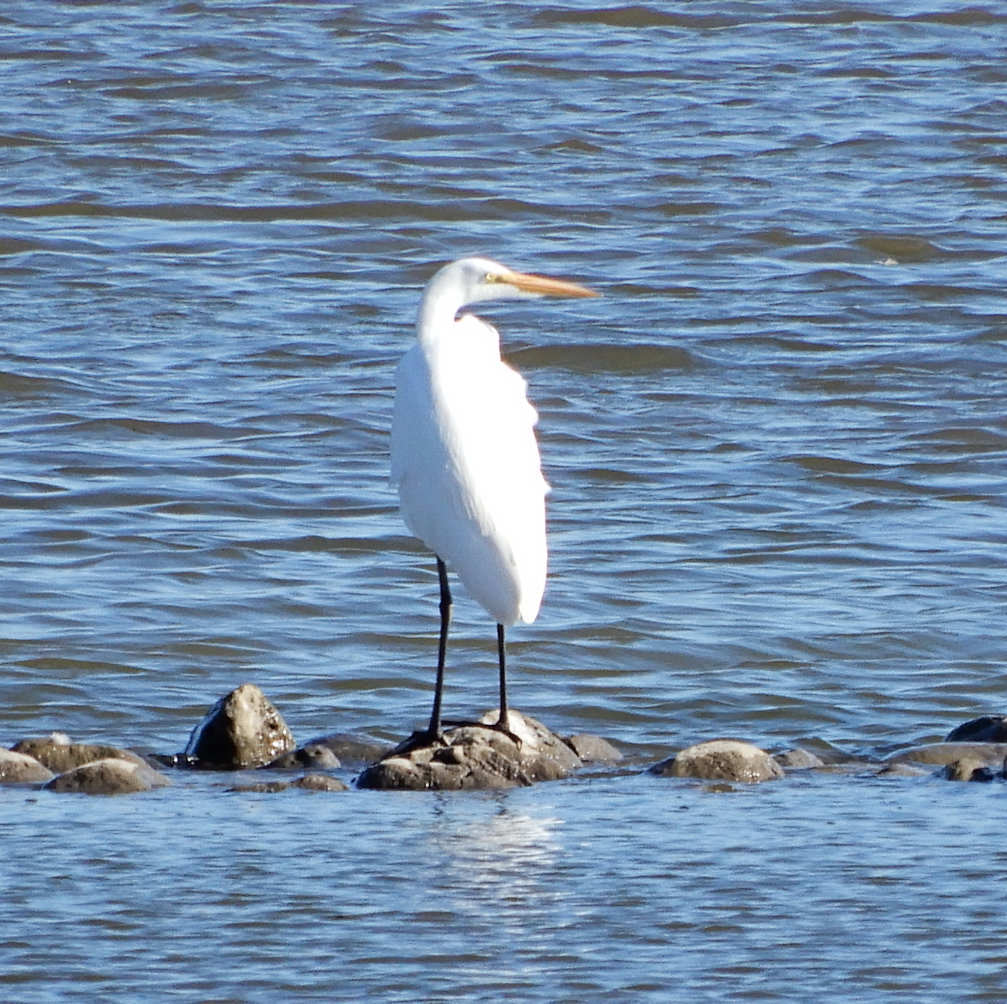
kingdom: Animalia
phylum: Chordata
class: Aves
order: Pelecaniformes
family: Ardeidae
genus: Ardea
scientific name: Ardea alba
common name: Great egret
